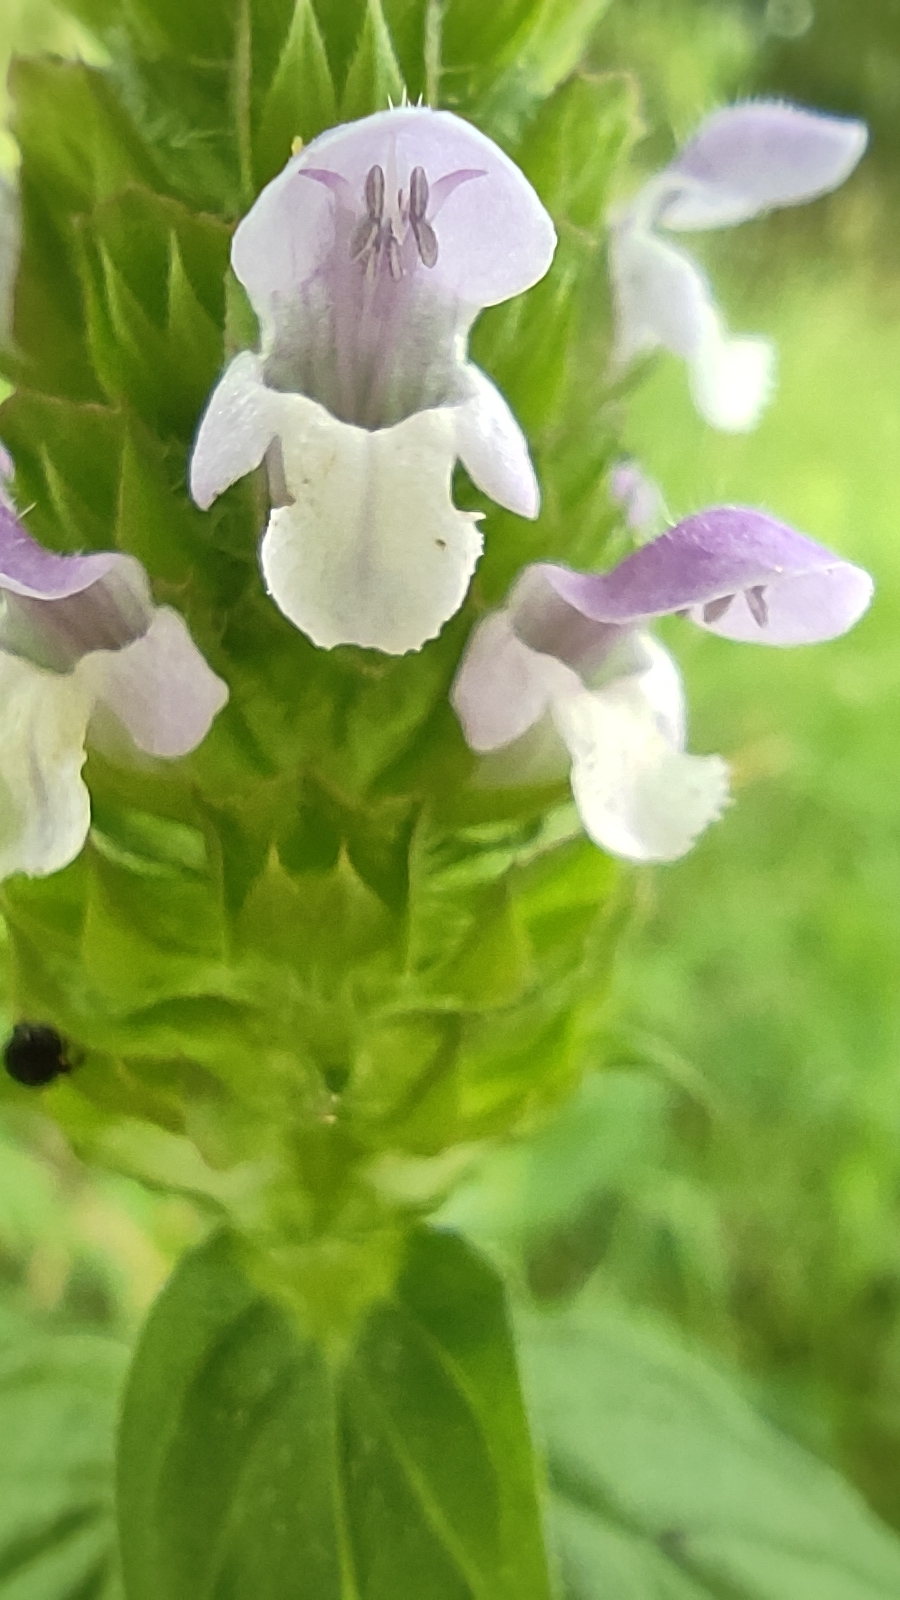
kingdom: Plantae
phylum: Tracheophyta
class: Magnoliopsida
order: Lamiales
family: Lamiaceae
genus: Prunella
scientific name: Prunella vulgaris
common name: Heal-all
